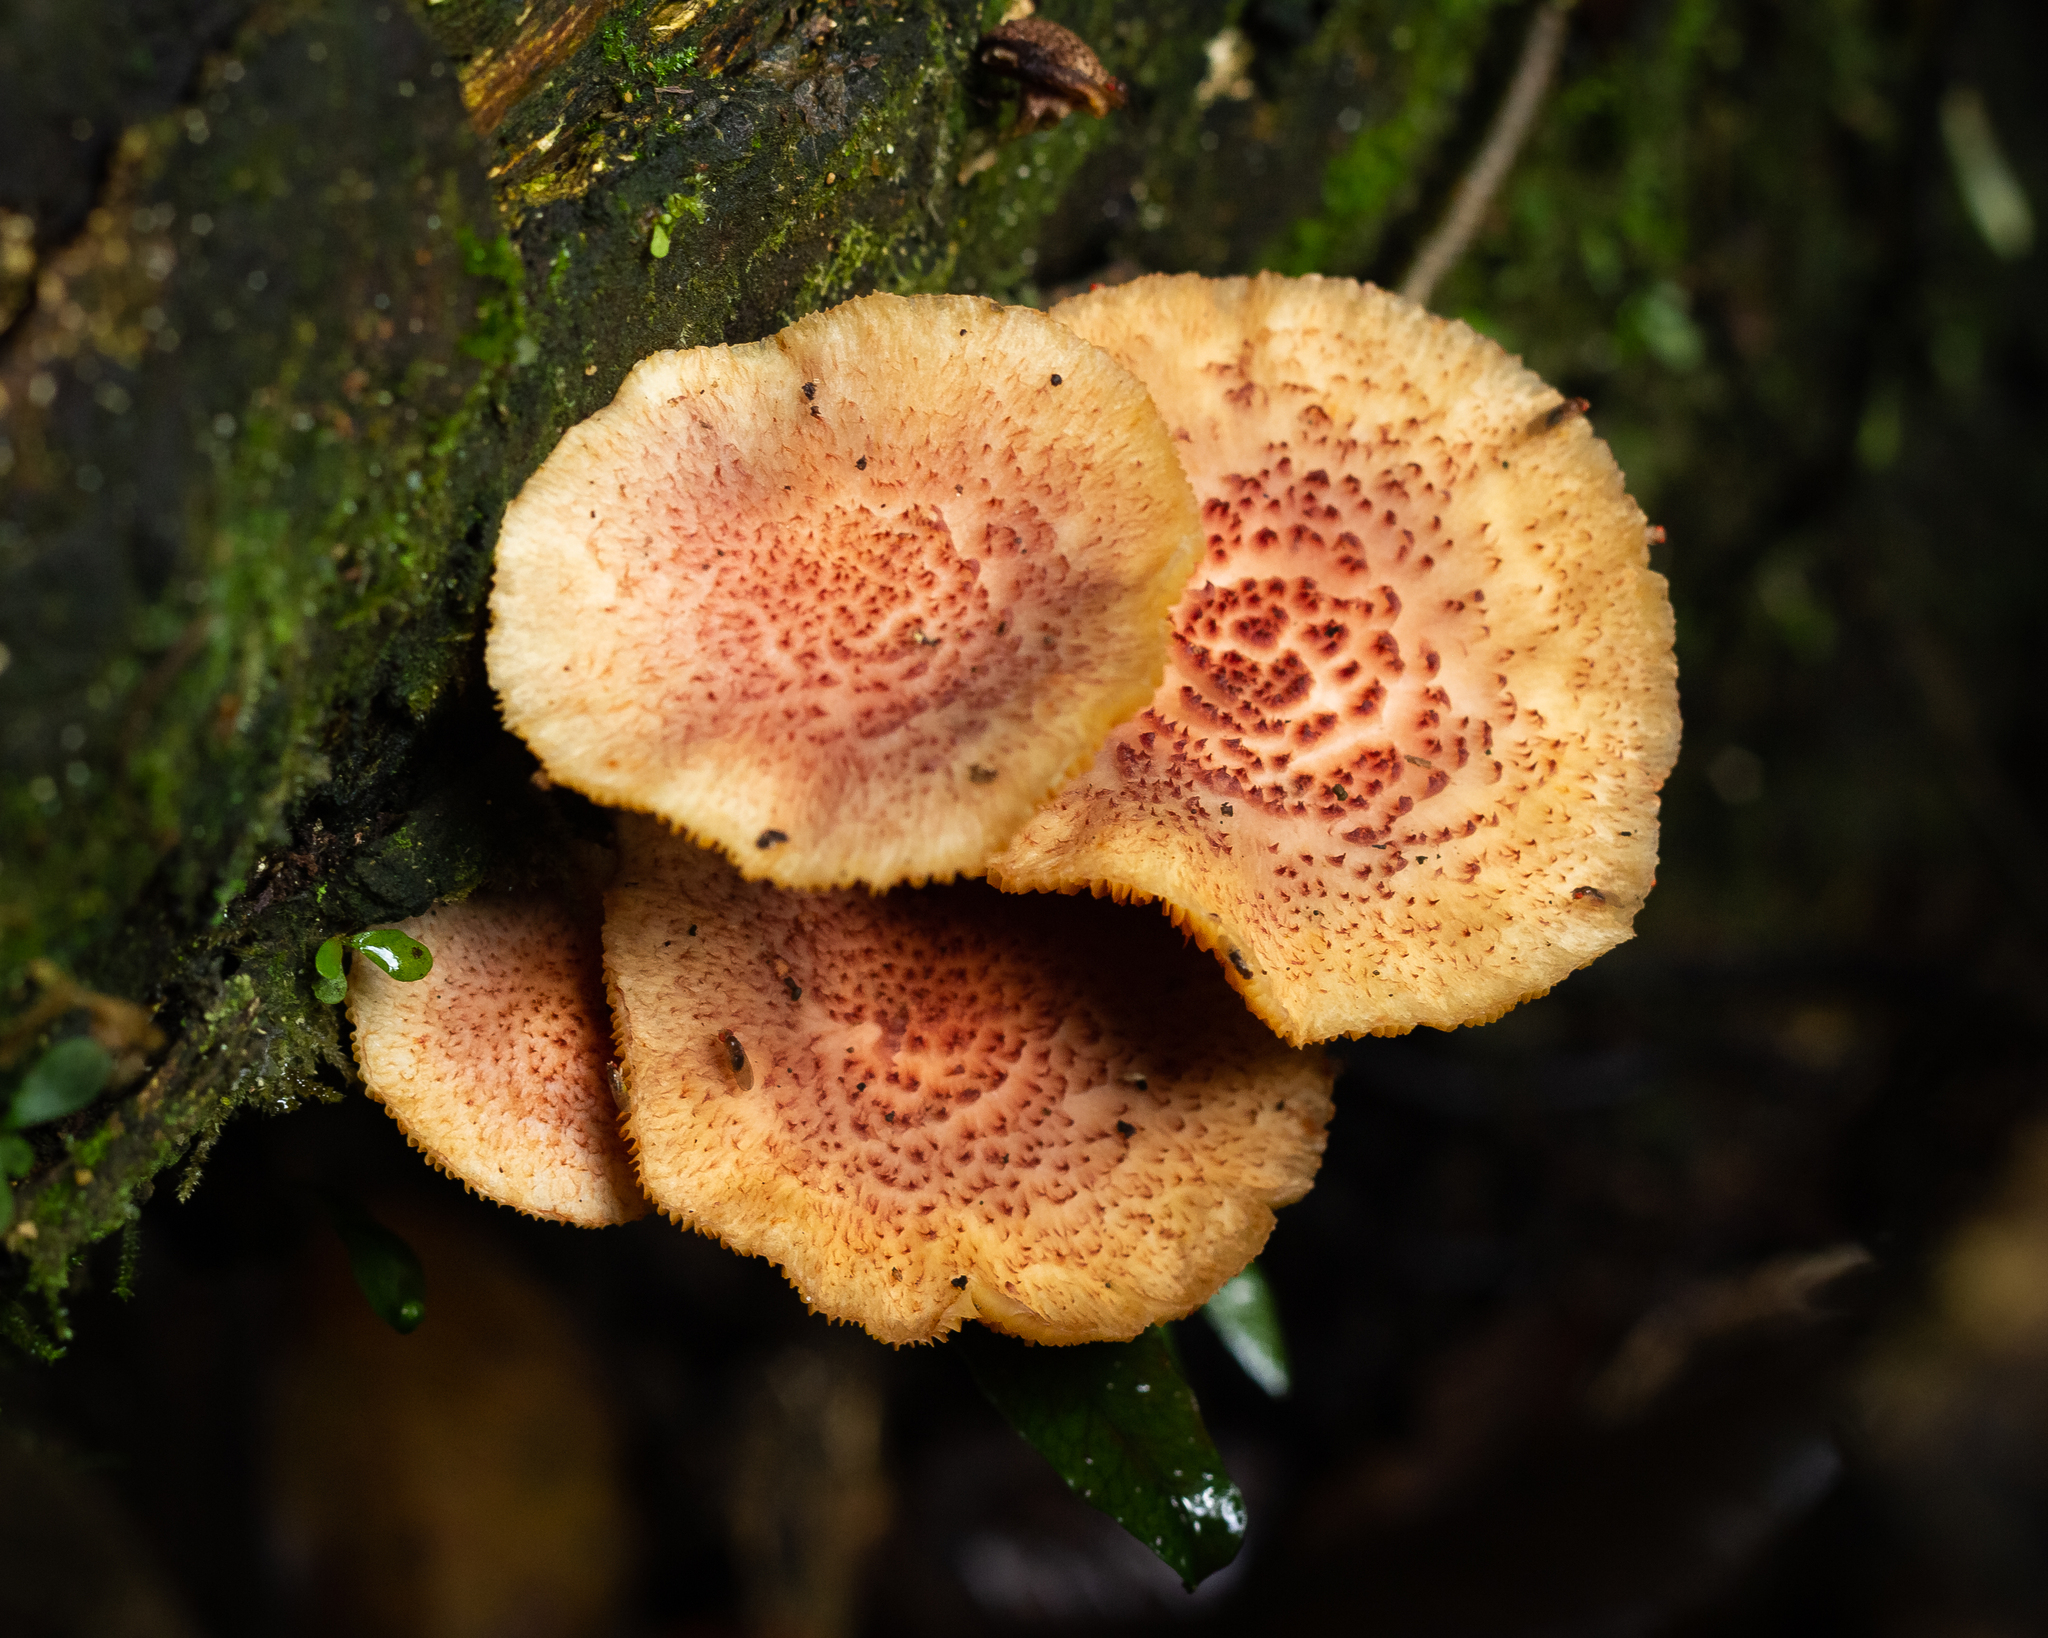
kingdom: Fungi
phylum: Basidiomycota
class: Agaricomycetes
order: Agaricales
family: Hymenogastraceae
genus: Gymnopilus
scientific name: Gymnopilus luteofolius
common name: Yellow-gilled gymnopilus
